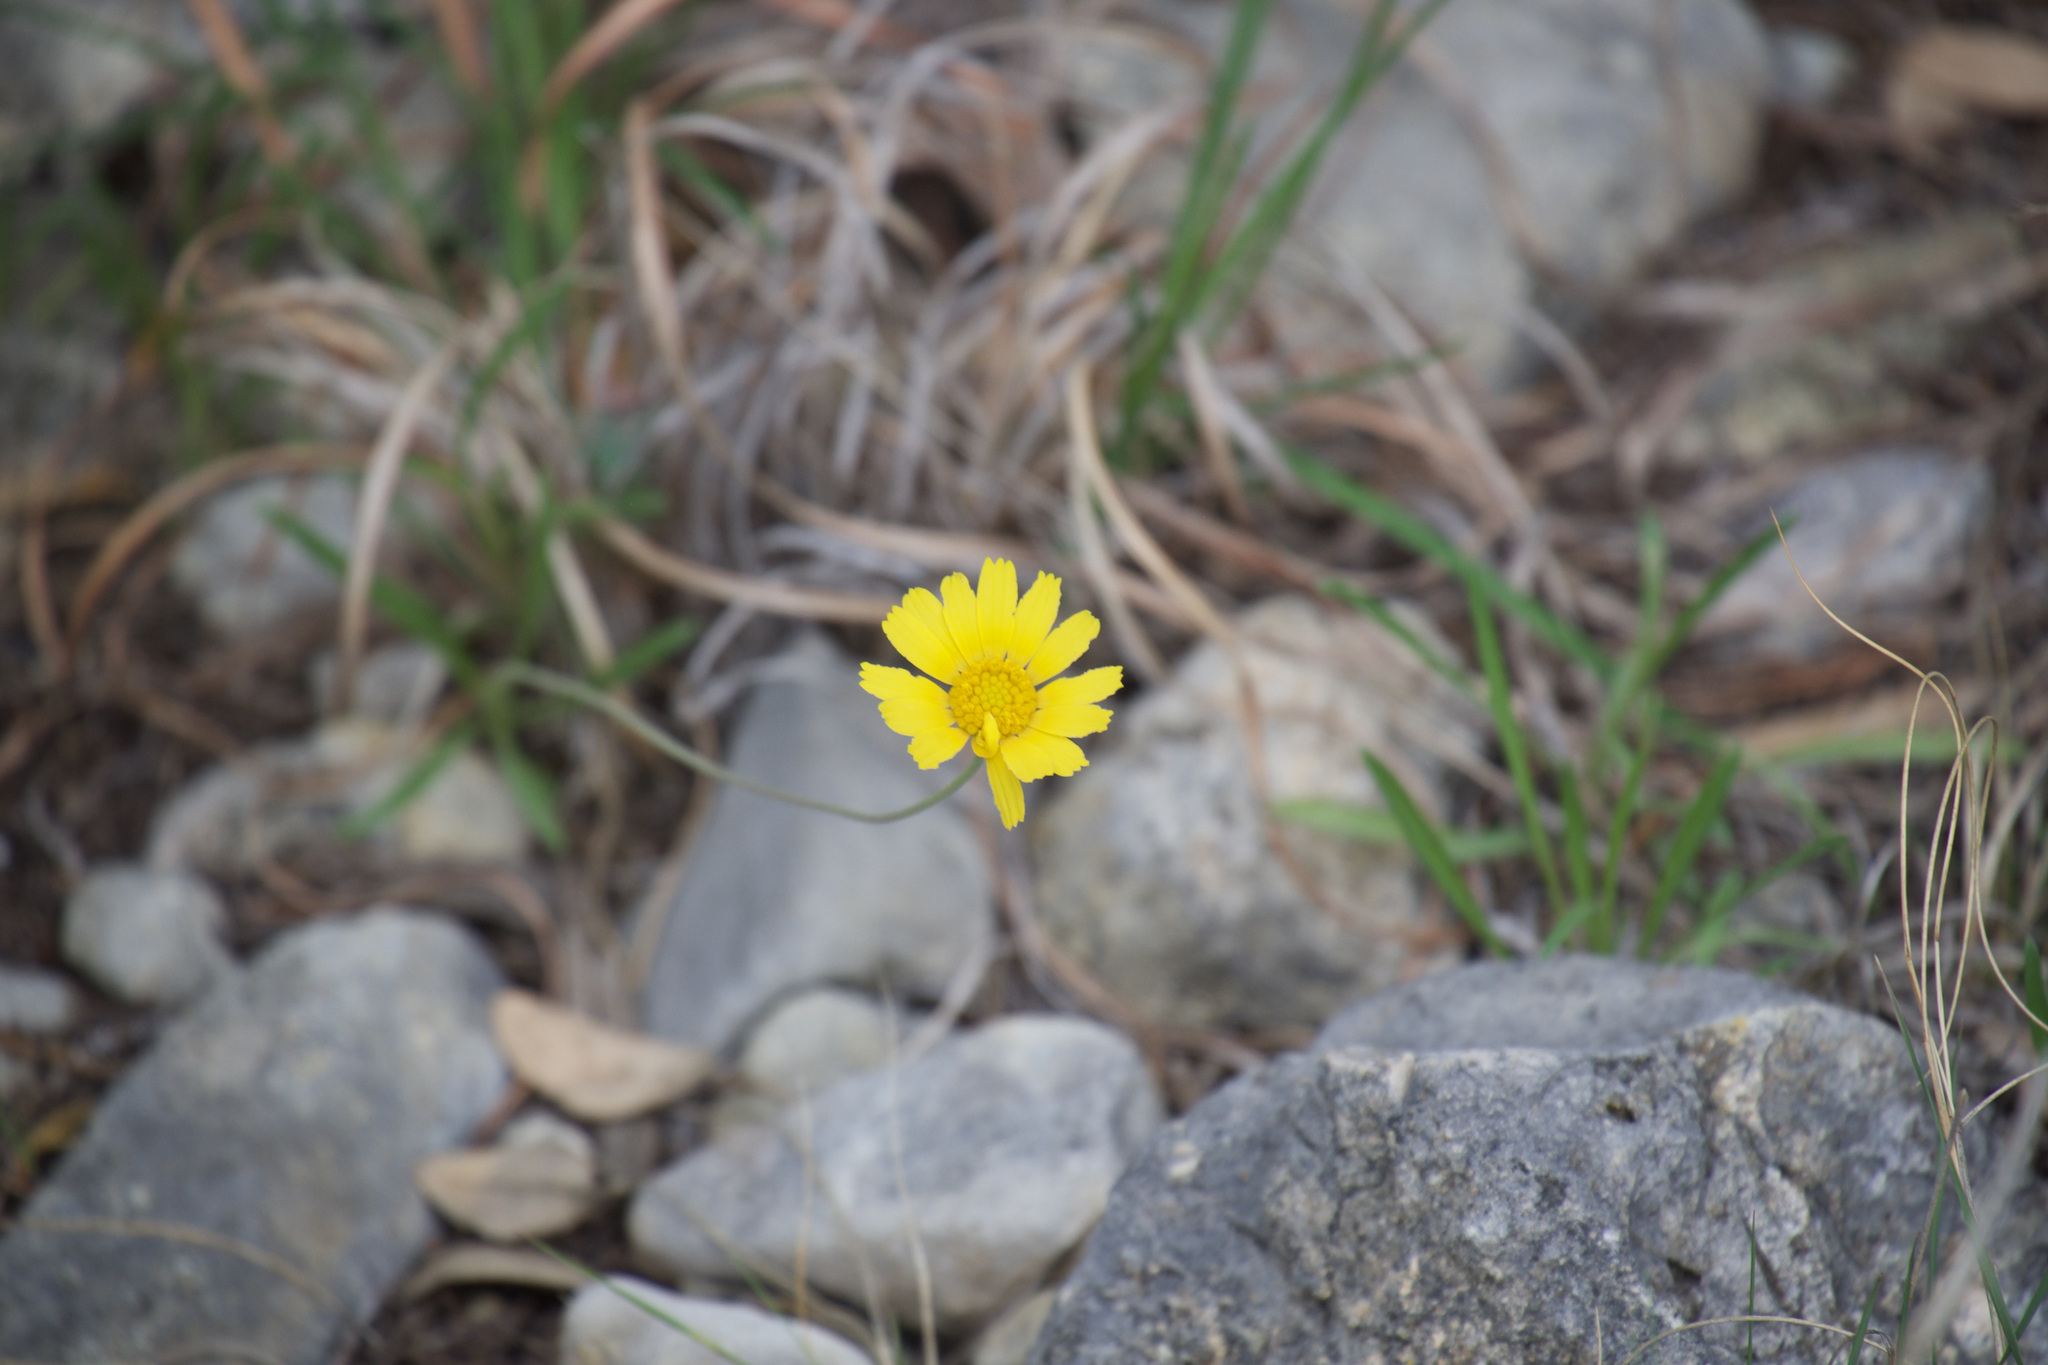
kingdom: Plantae
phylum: Tracheophyta
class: Magnoliopsida
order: Asterales
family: Asteraceae
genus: Tetraneuris
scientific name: Tetraneuris scaposa
